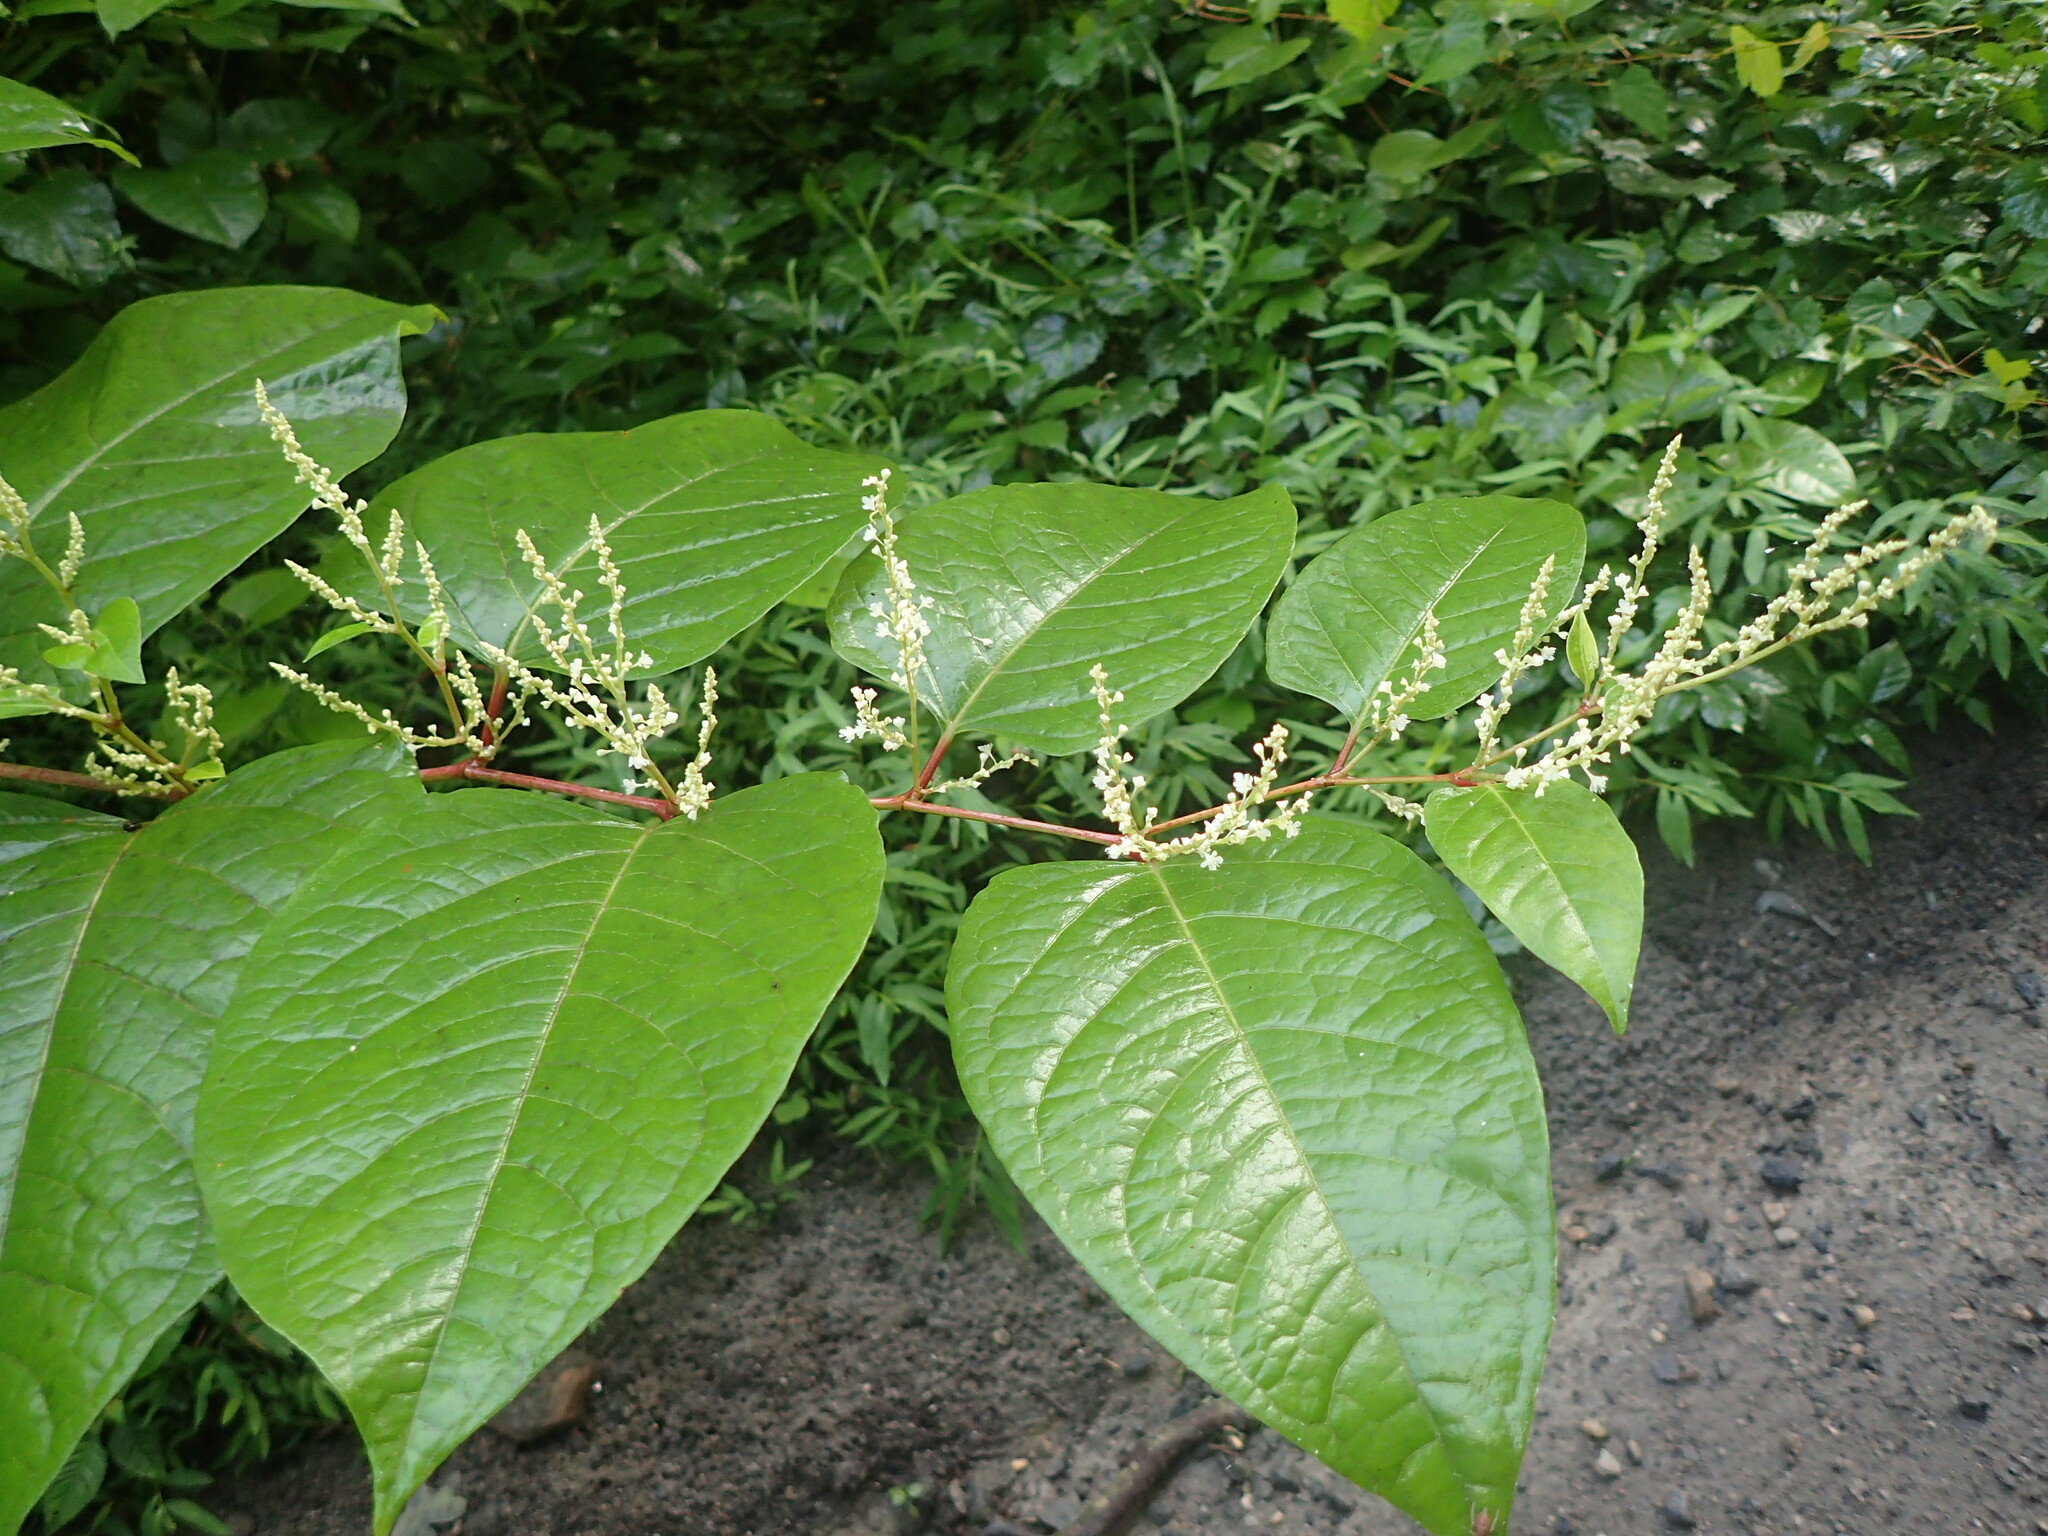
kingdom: Plantae
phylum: Tracheophyta
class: Magnoliopsida
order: Caryophyllales
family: Polygonaceae
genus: Reynoutria
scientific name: Reynoutria japonica
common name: Japanese knotweed
